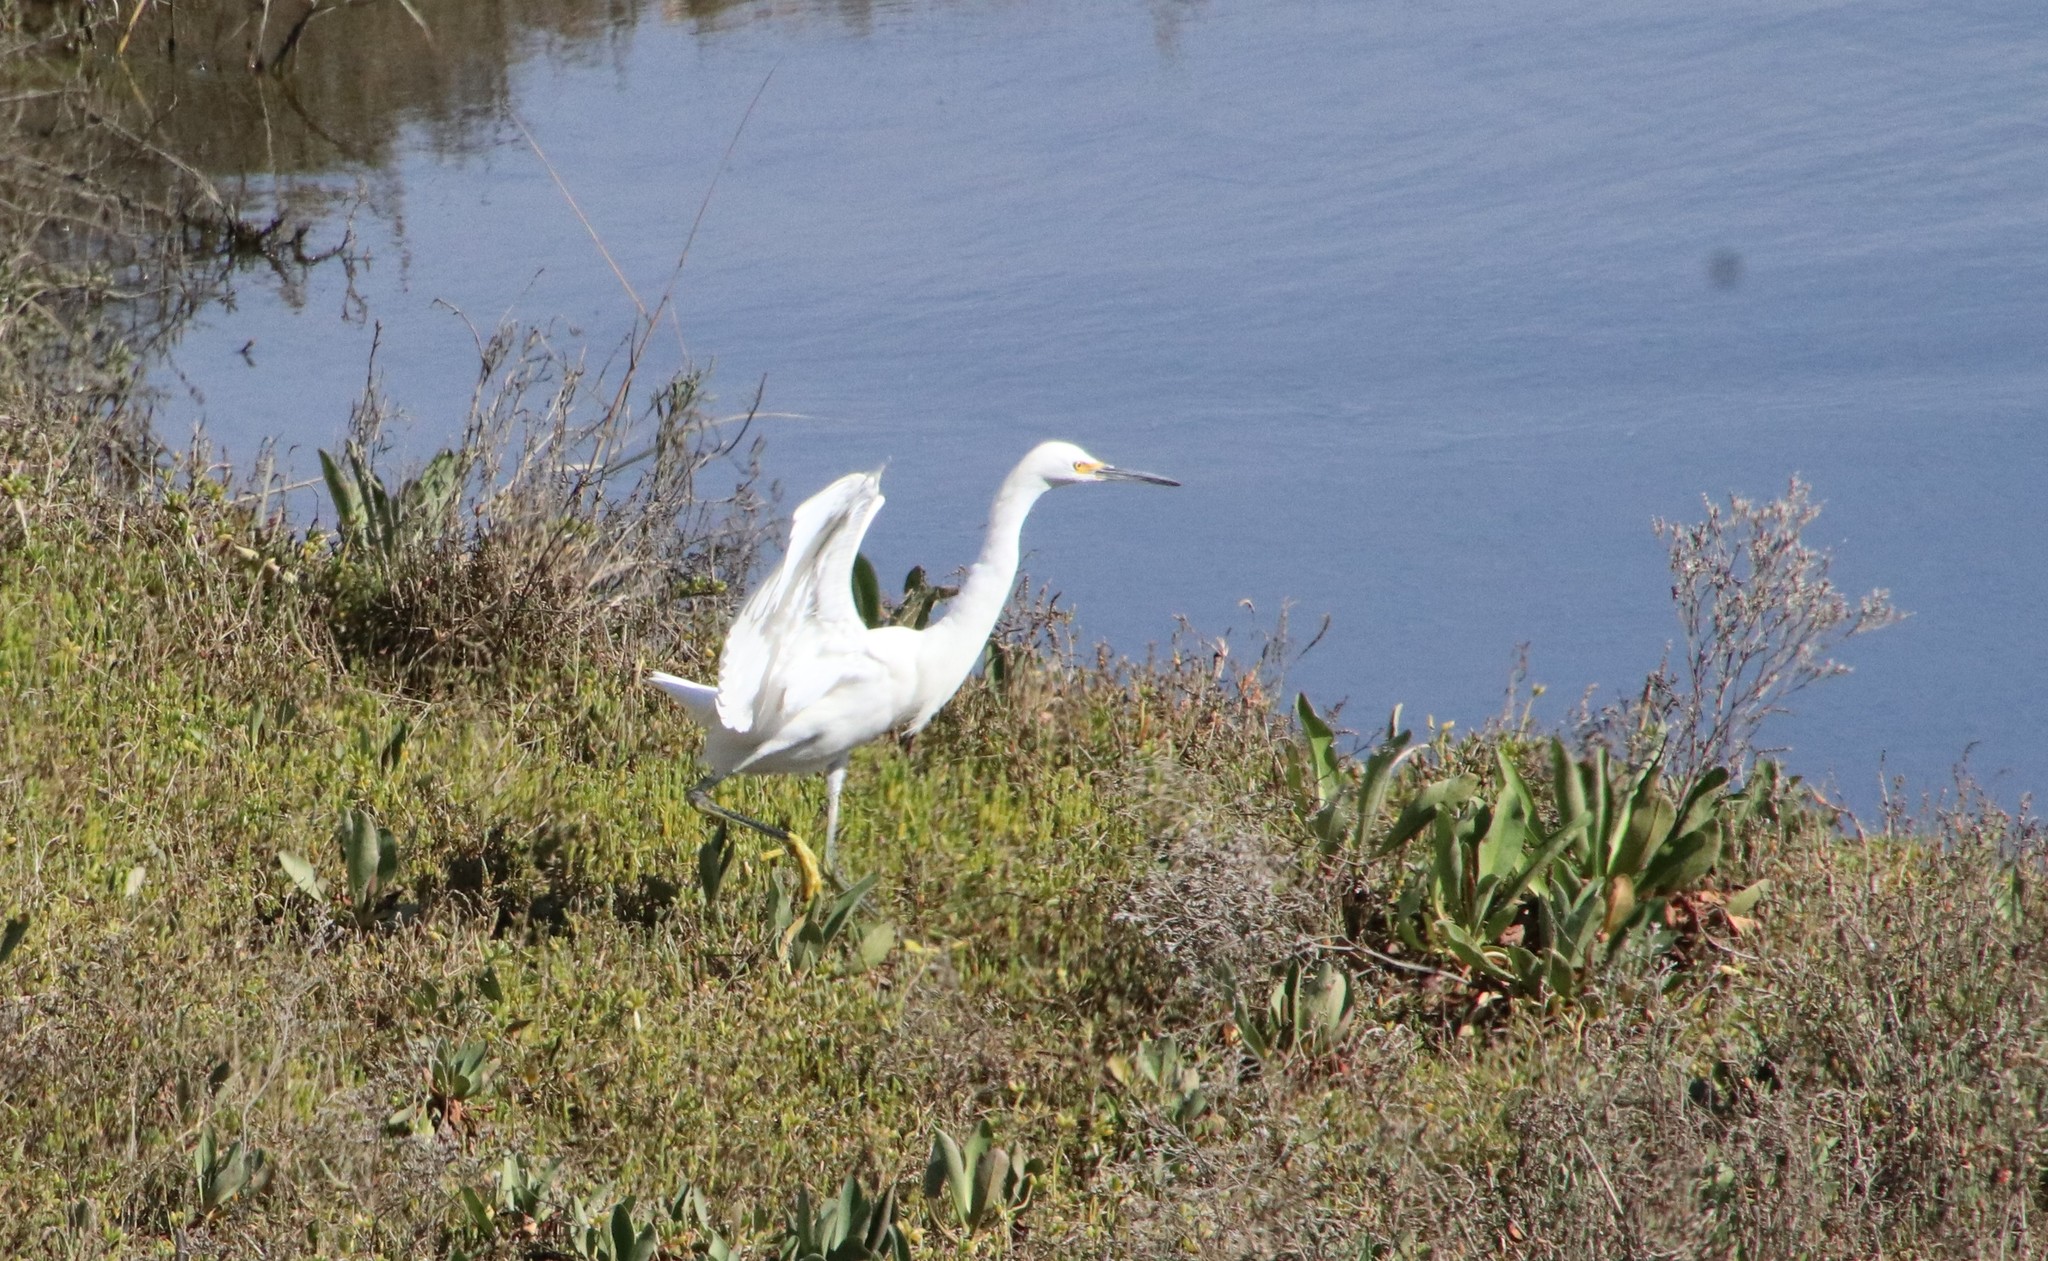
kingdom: Animalia
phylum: Chordata
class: Aves
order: Pelecaniformes
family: Ardeidae
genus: Egretta
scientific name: Egretta thula
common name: Snowy egret
